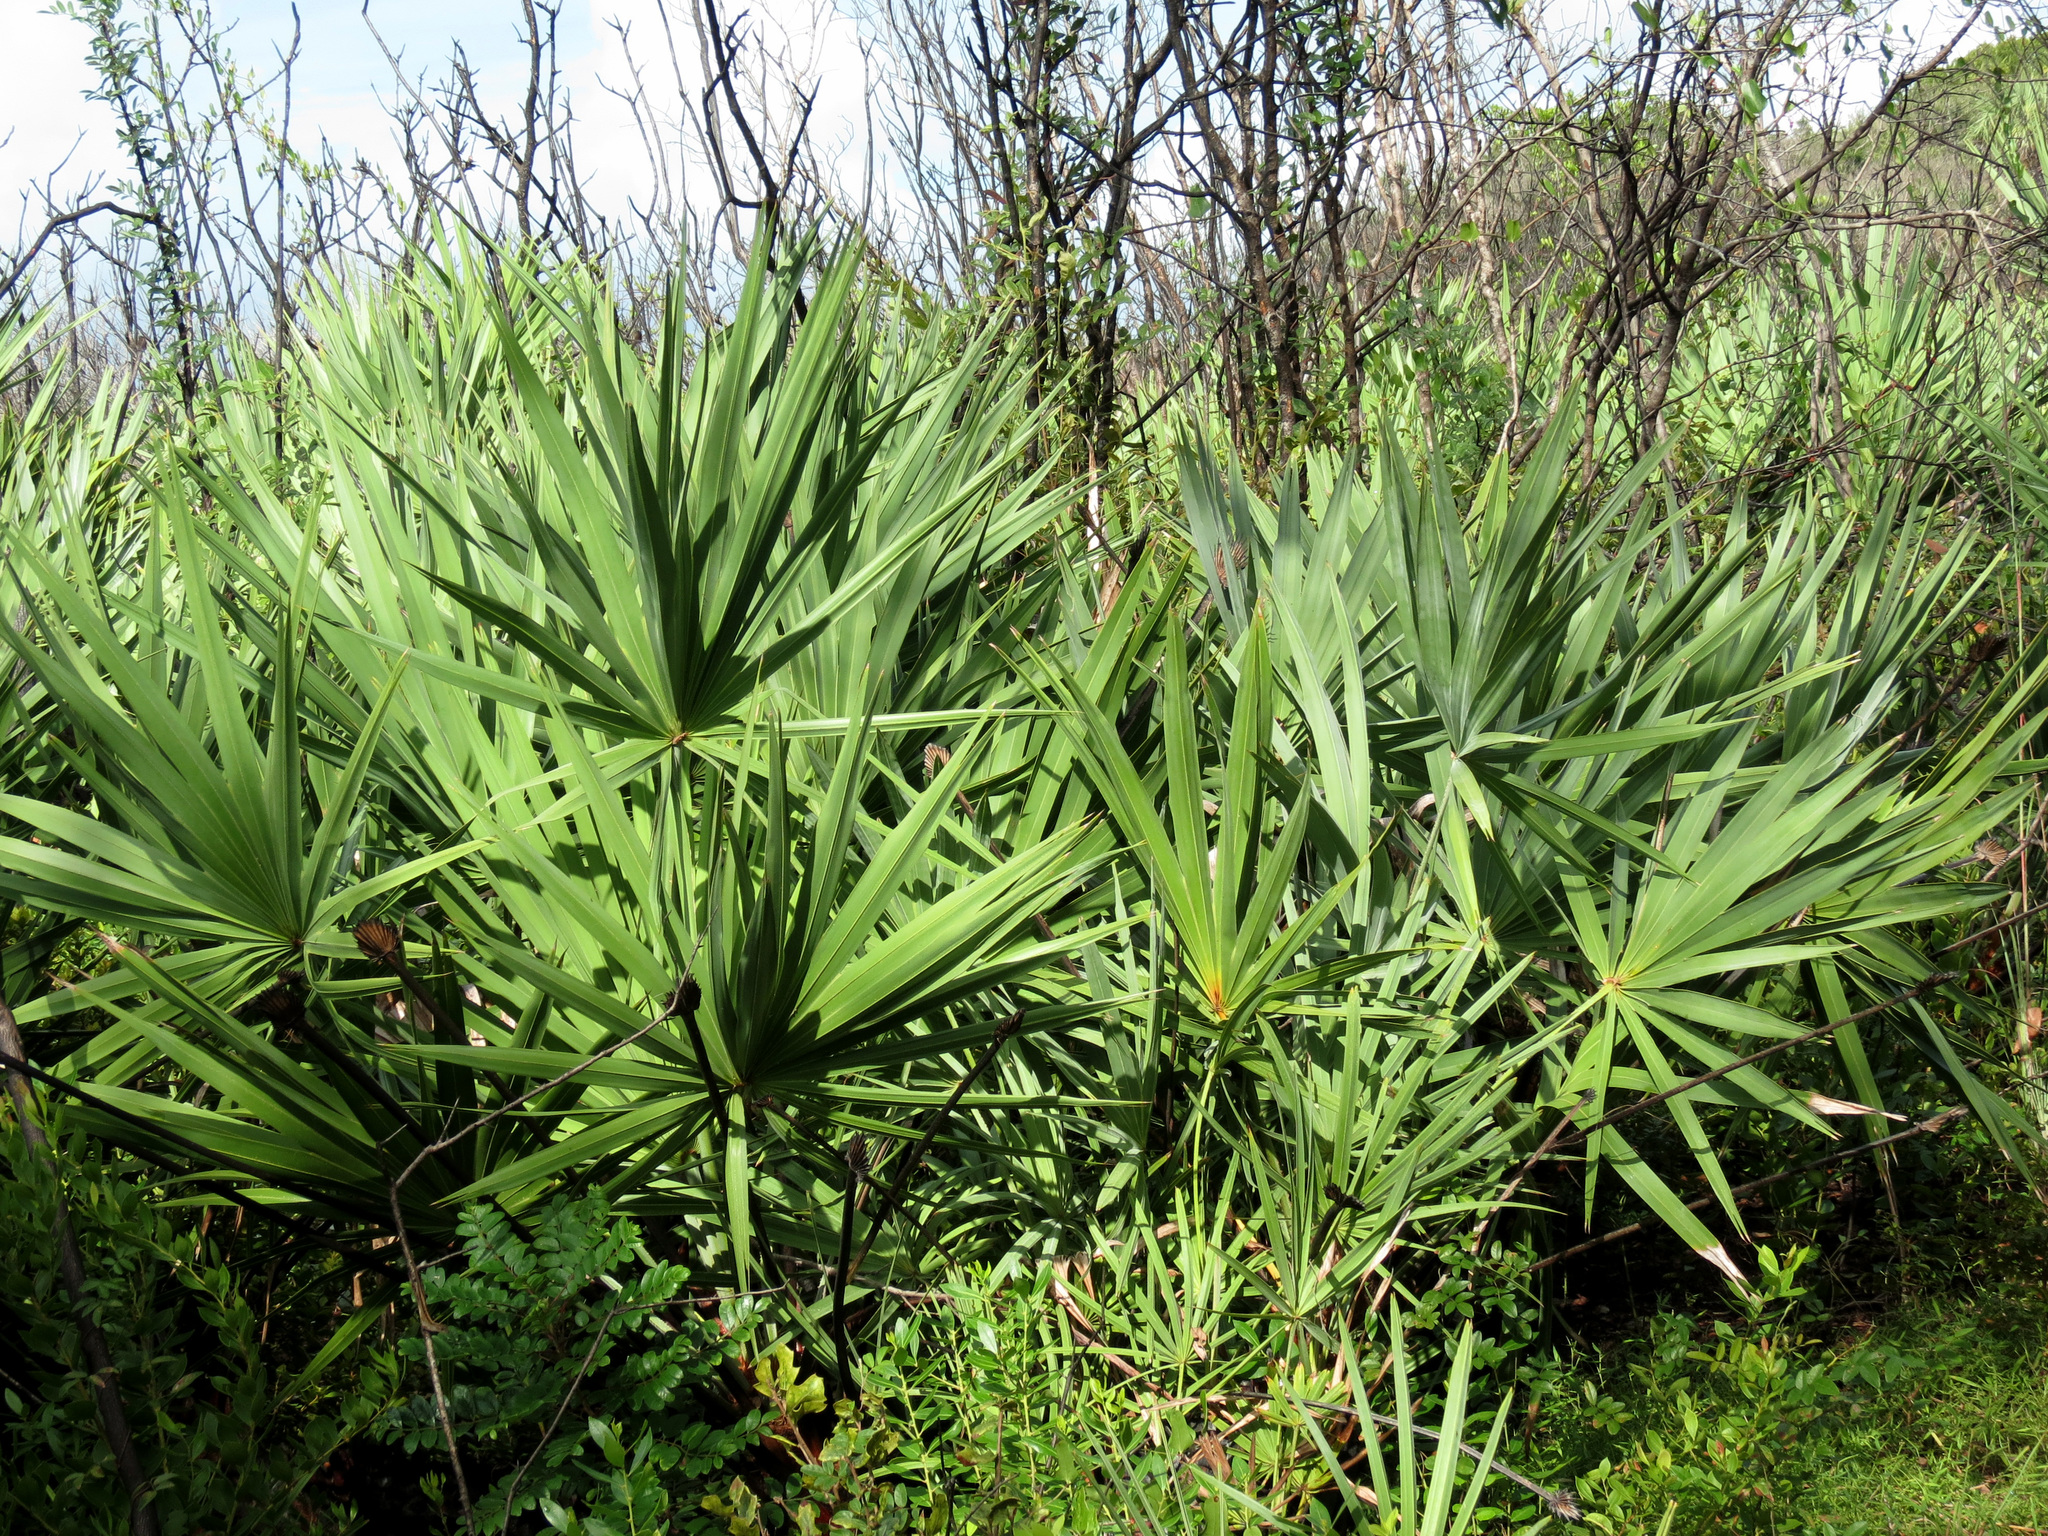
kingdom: Plantae
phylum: Tracheophyta
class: Liliopsida
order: Arecales
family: Arecaceae
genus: Serenoa
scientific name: Serenoa repens
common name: Saw-palmetto
